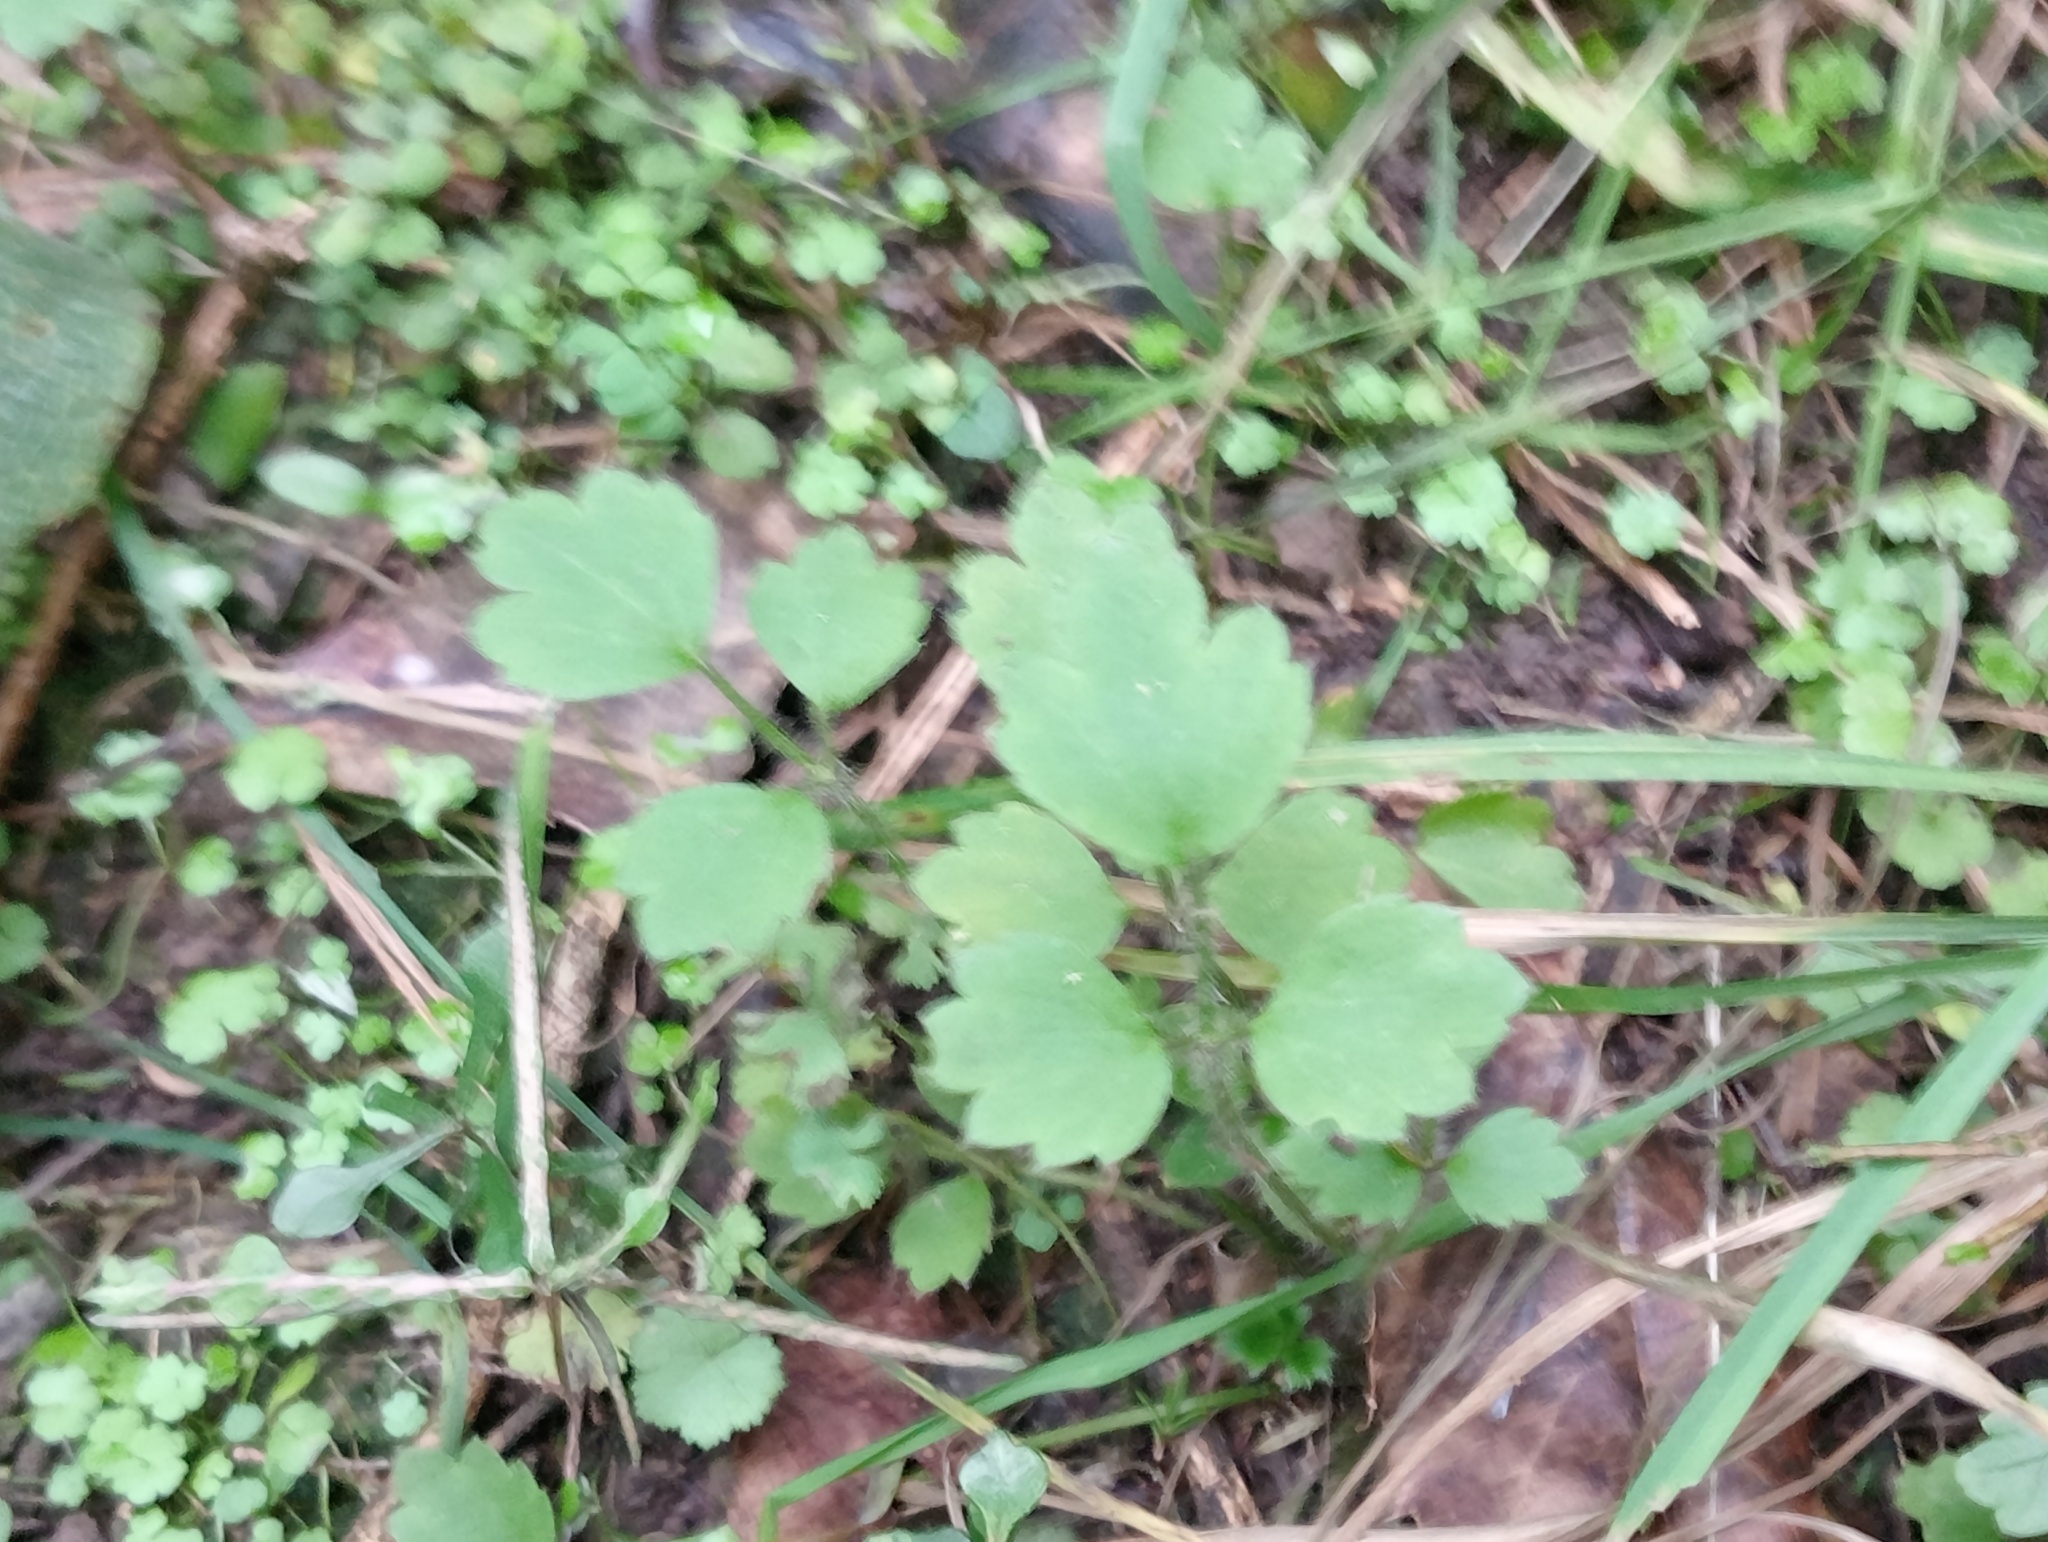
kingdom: Plantae
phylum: Tracheophyta
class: Magnoliopsida
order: Ranunculales
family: Ranunculaceae
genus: Ranunculus
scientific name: Ranunculus reflexus
